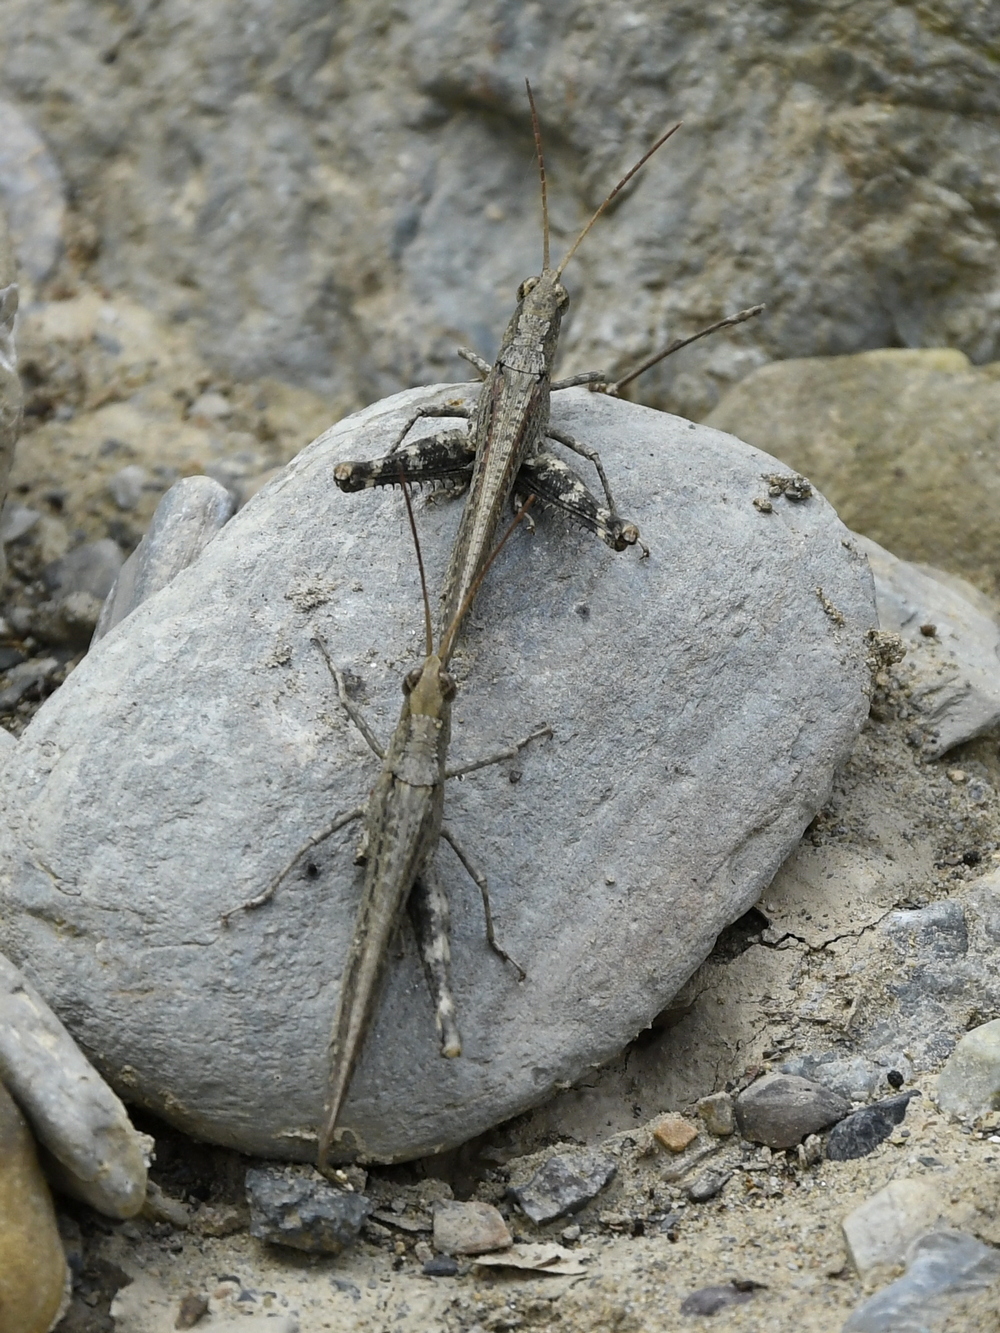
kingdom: Animalia
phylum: Arthropoda
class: Insecta
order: Orthoptera
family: Acrididae
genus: Sikkimiana
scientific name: Sikkimiana darjeelingensis
